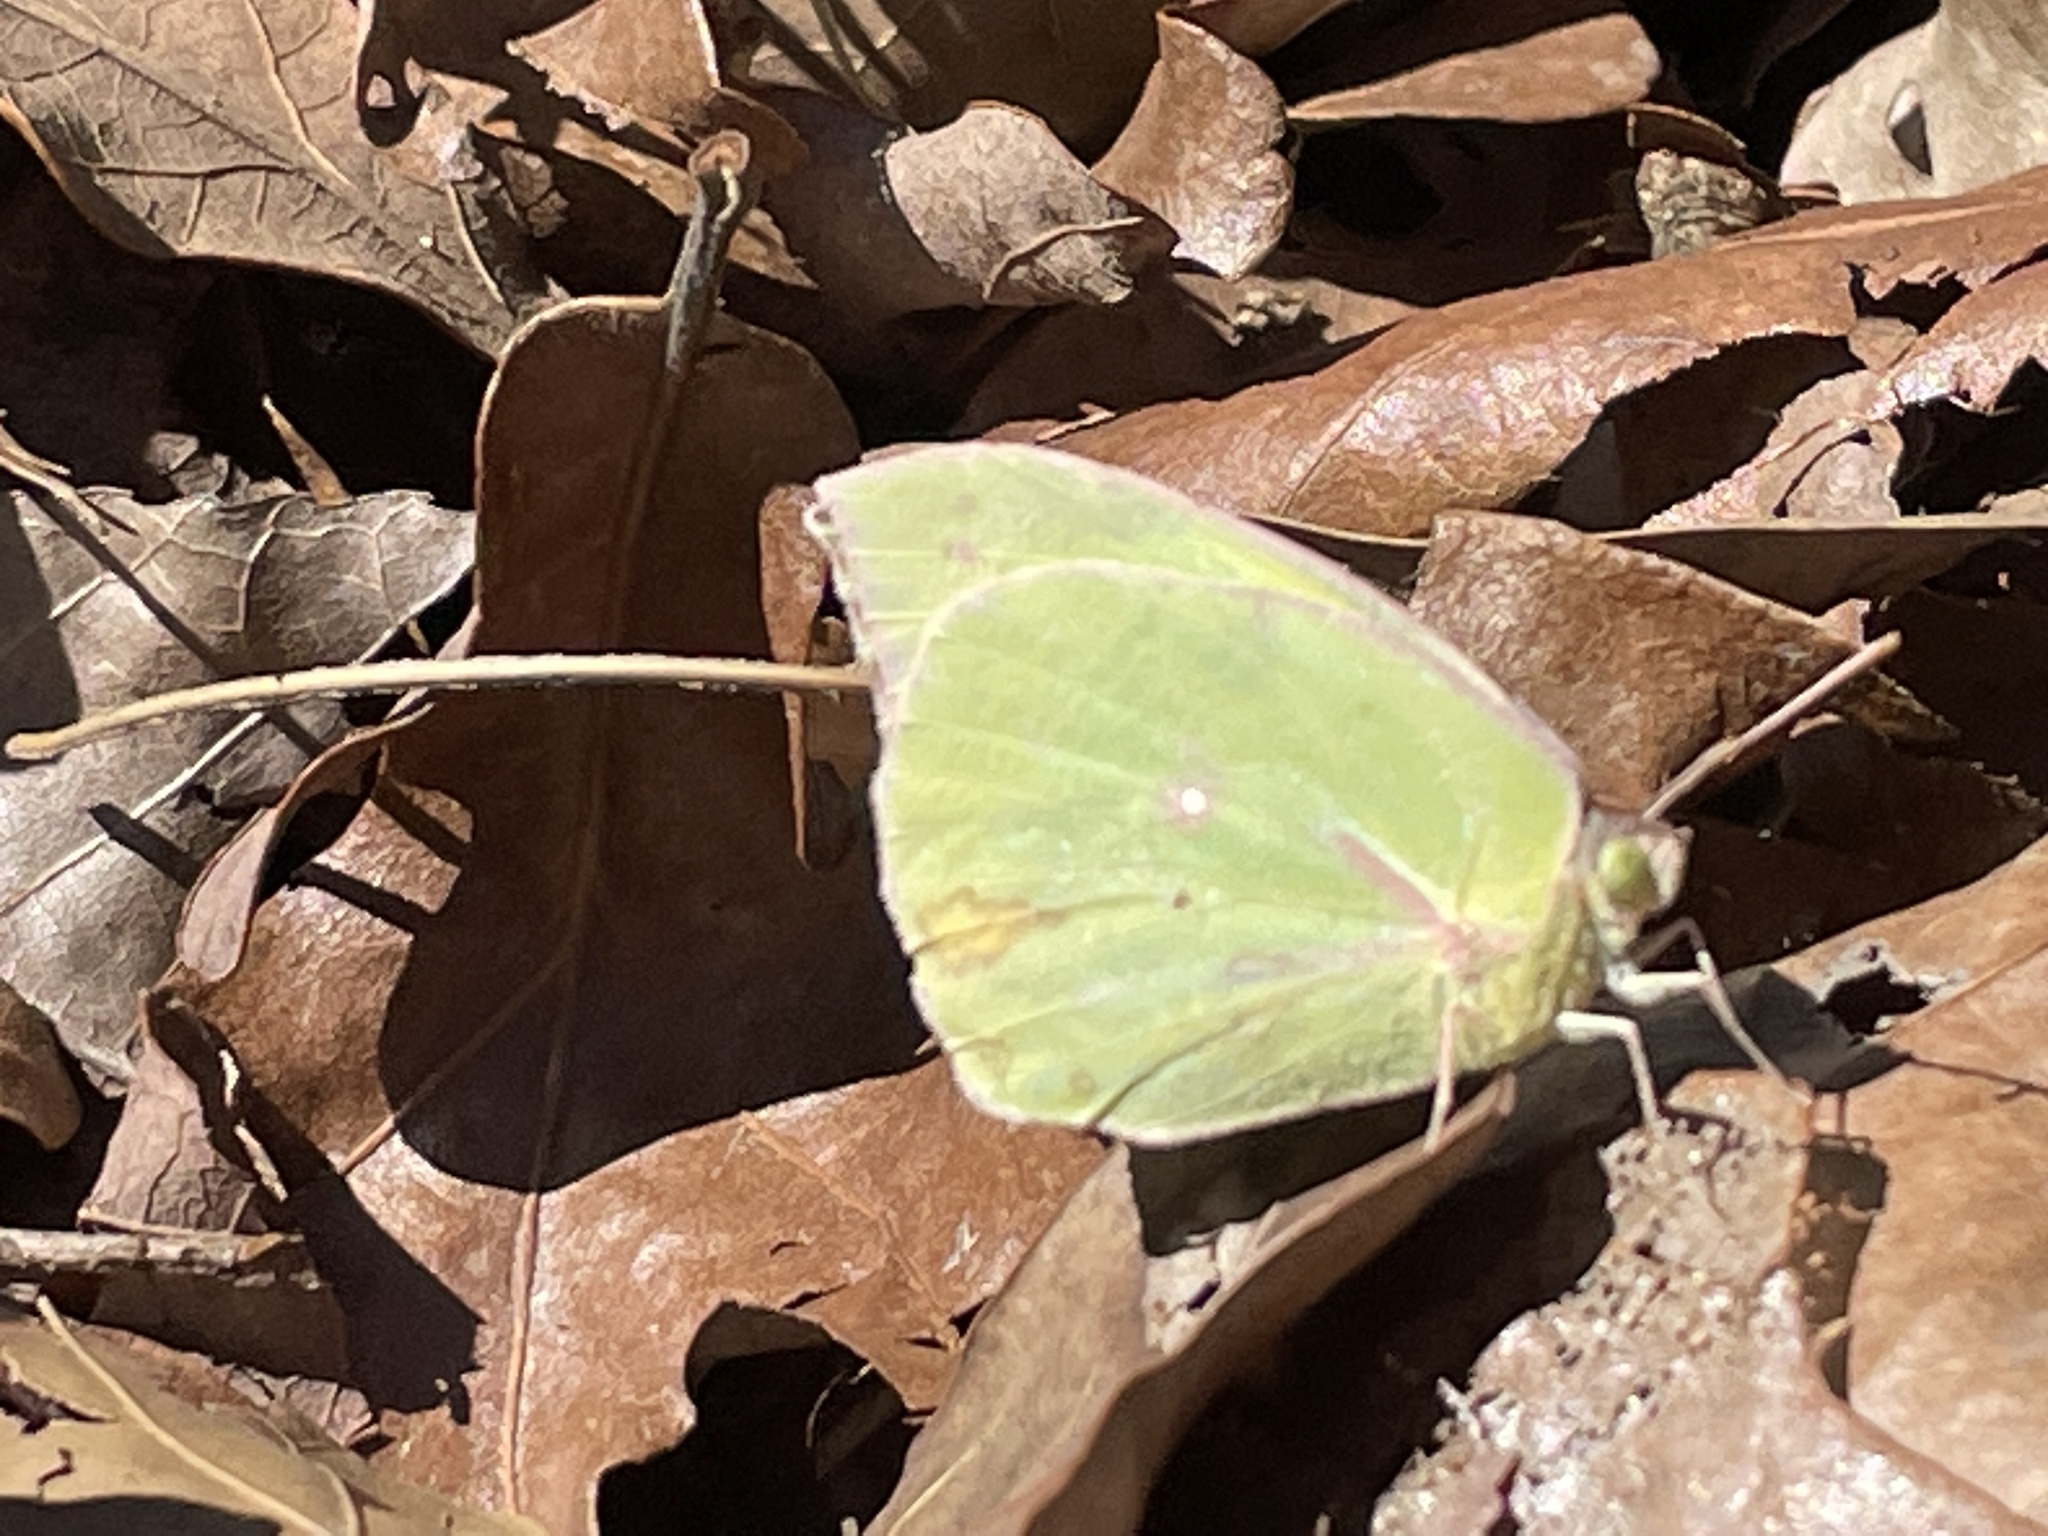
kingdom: Animalia
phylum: Arthropoda
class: Insecta
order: Lepidoptera
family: Pieridae
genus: Zerene
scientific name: Zerene cesonia
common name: Southern dogface
